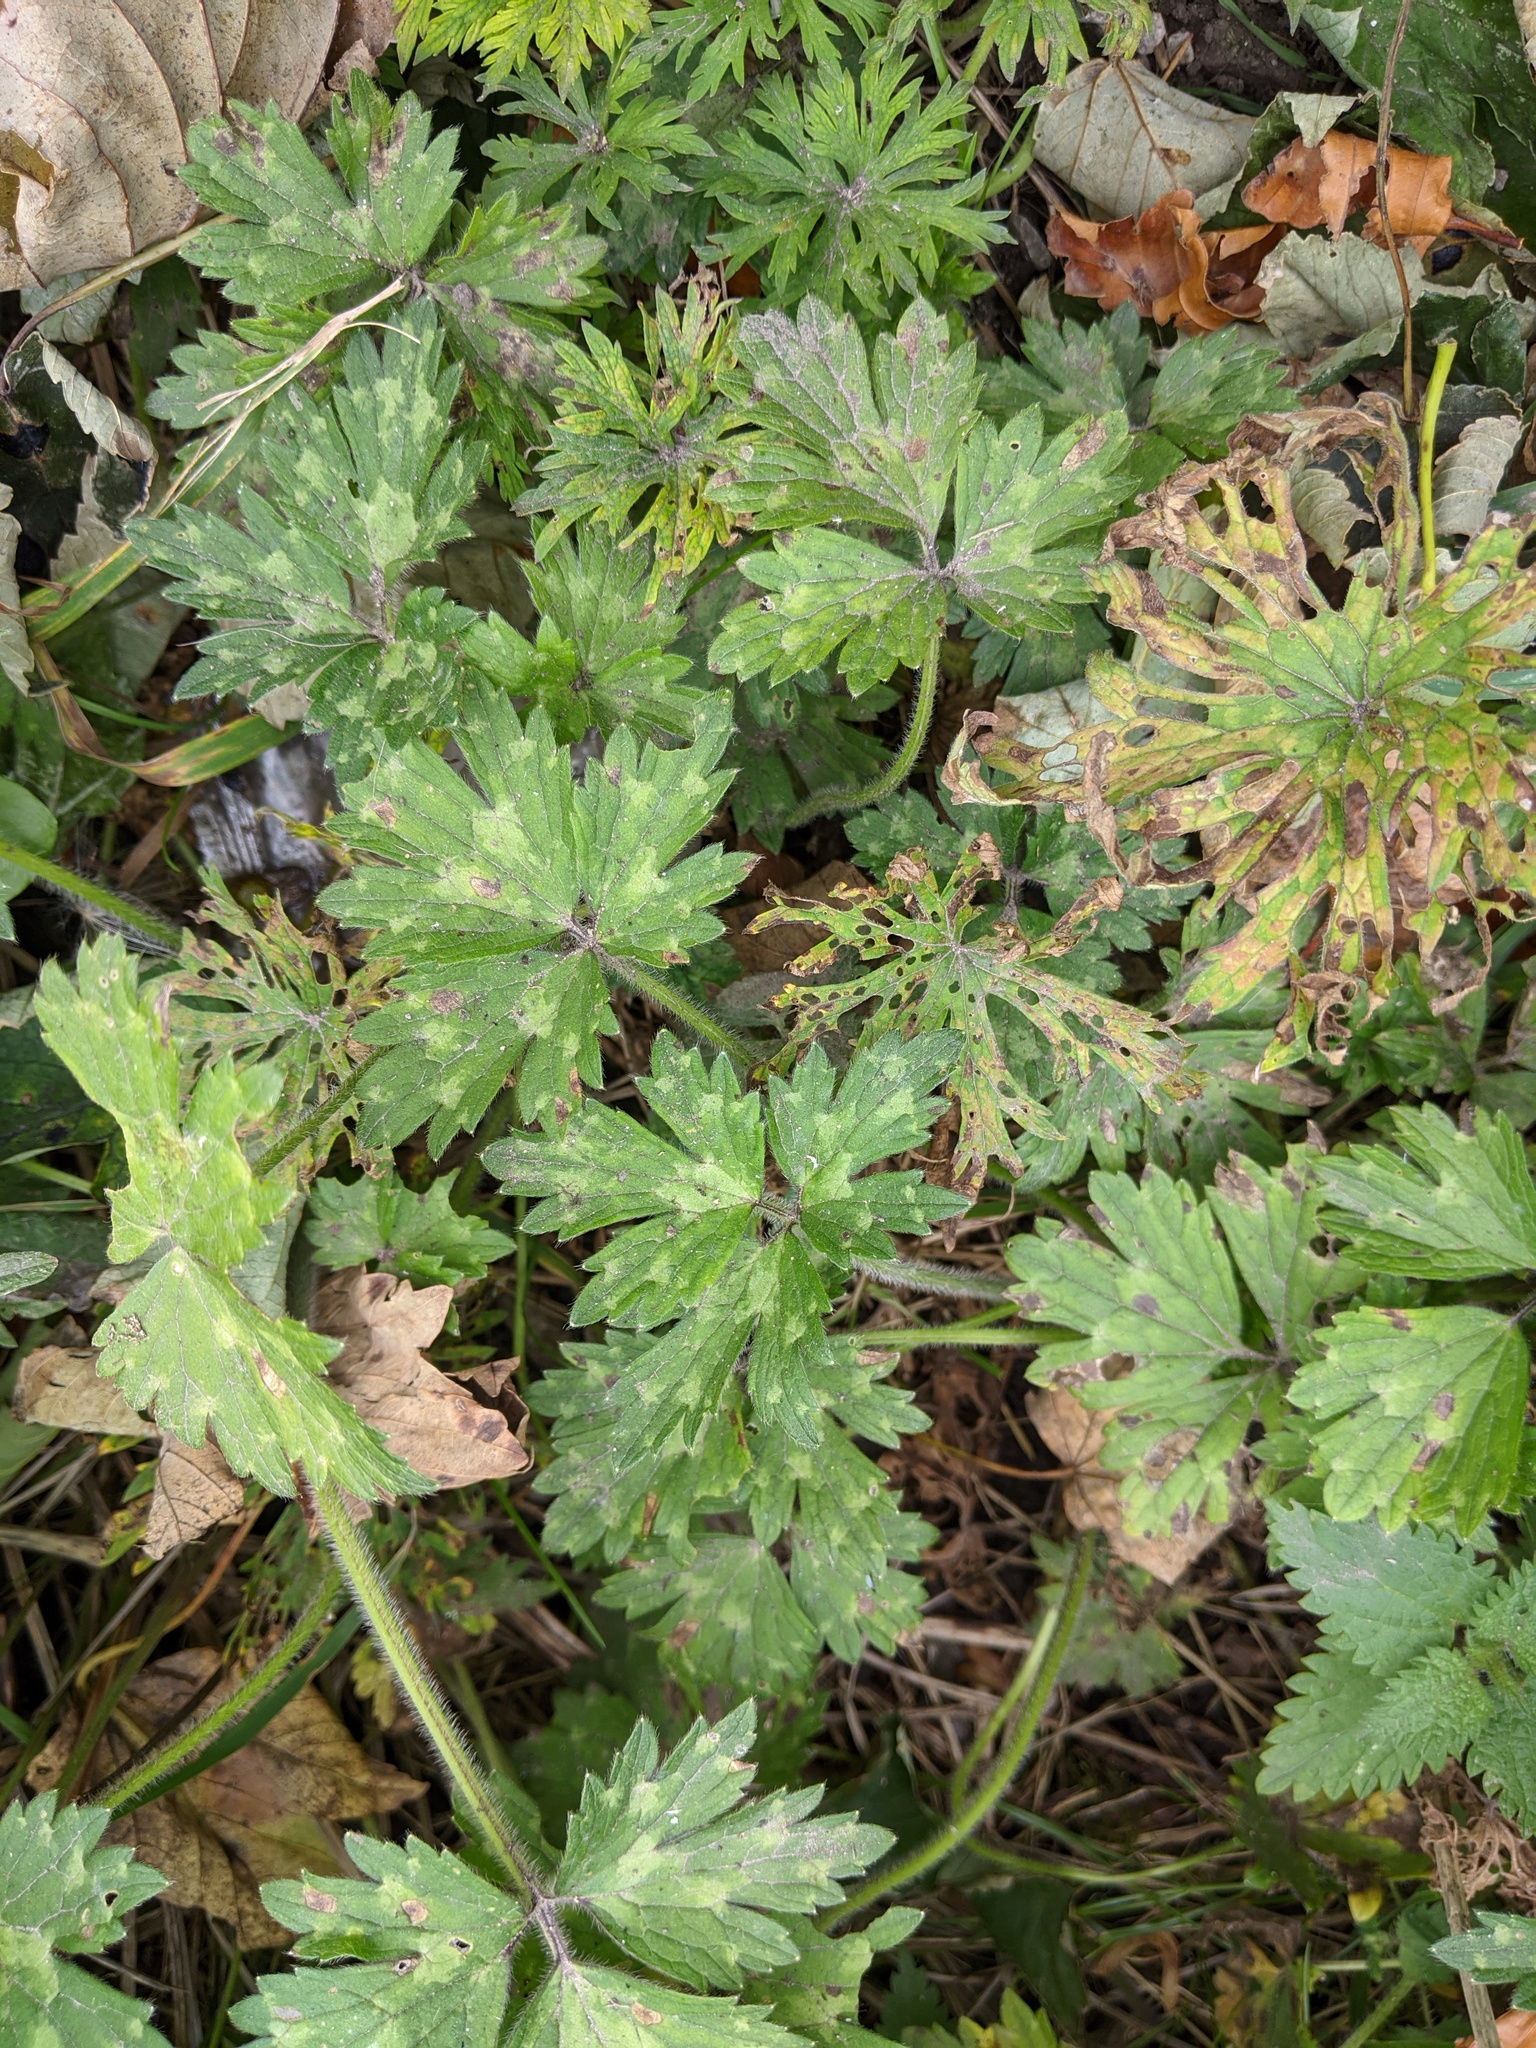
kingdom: Plantae
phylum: Tracheophyta
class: Magnoliopsida
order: Ranunculales
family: Ranunculaceae
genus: Ranunculus
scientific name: Ranunculus repens
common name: Creeping buttercup
